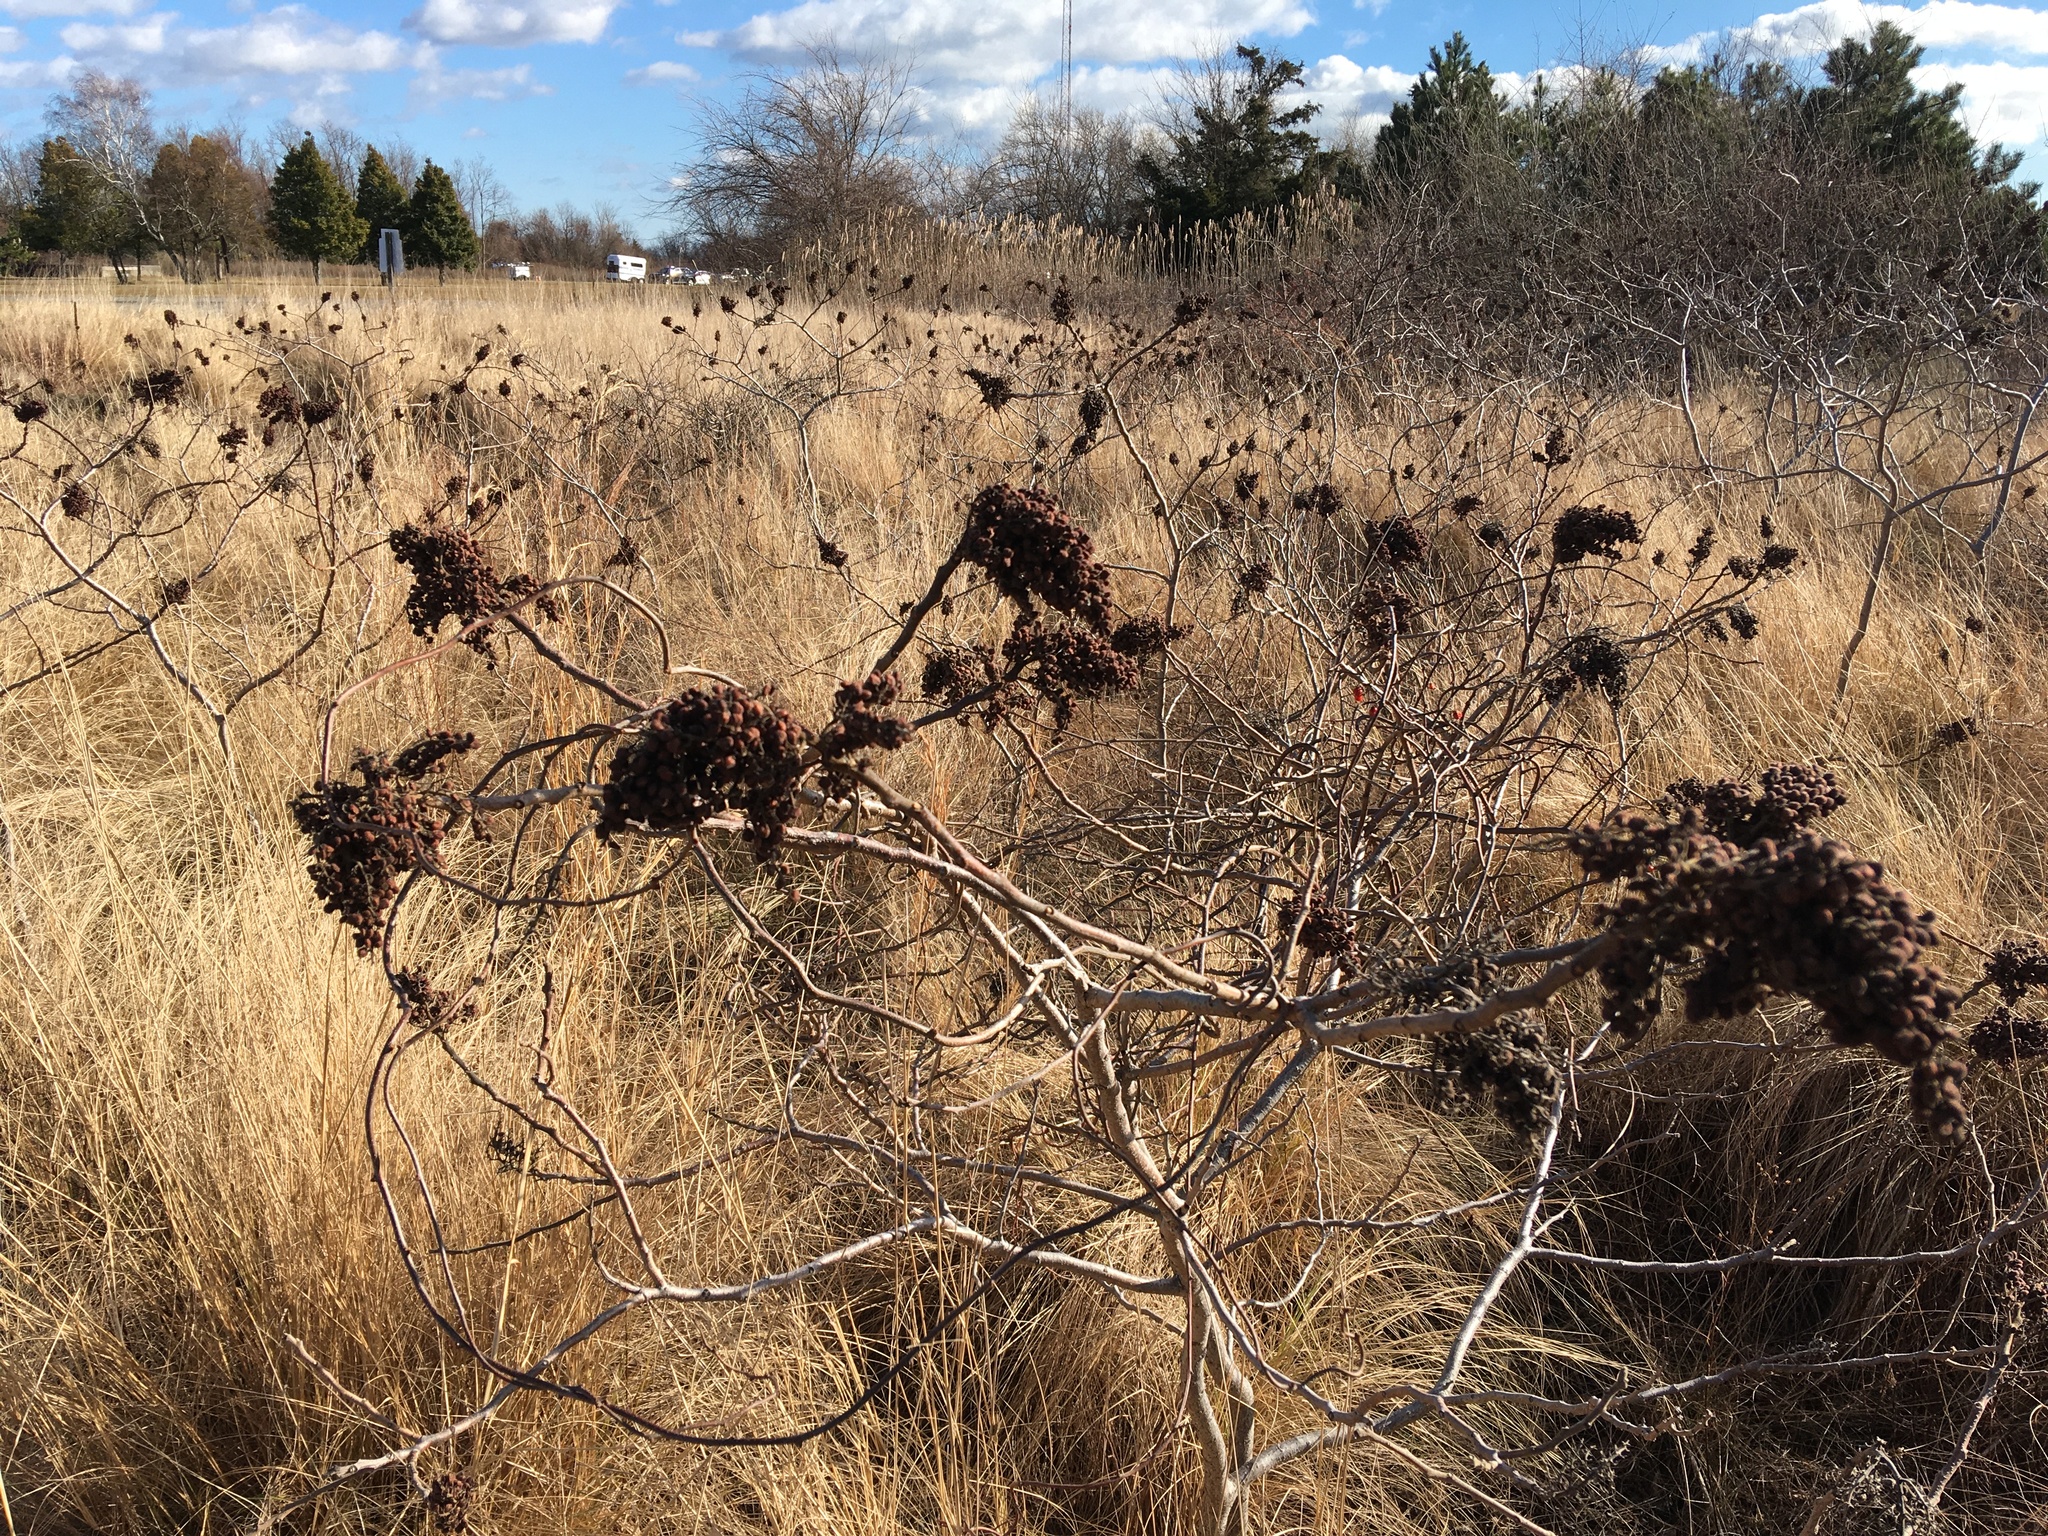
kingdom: Plantae
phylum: Tracheophyta
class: Magnoliopsida
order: Sapindales
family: Anacardiaceae
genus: Rhus
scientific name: Rhus copallina
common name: Shining sumac
